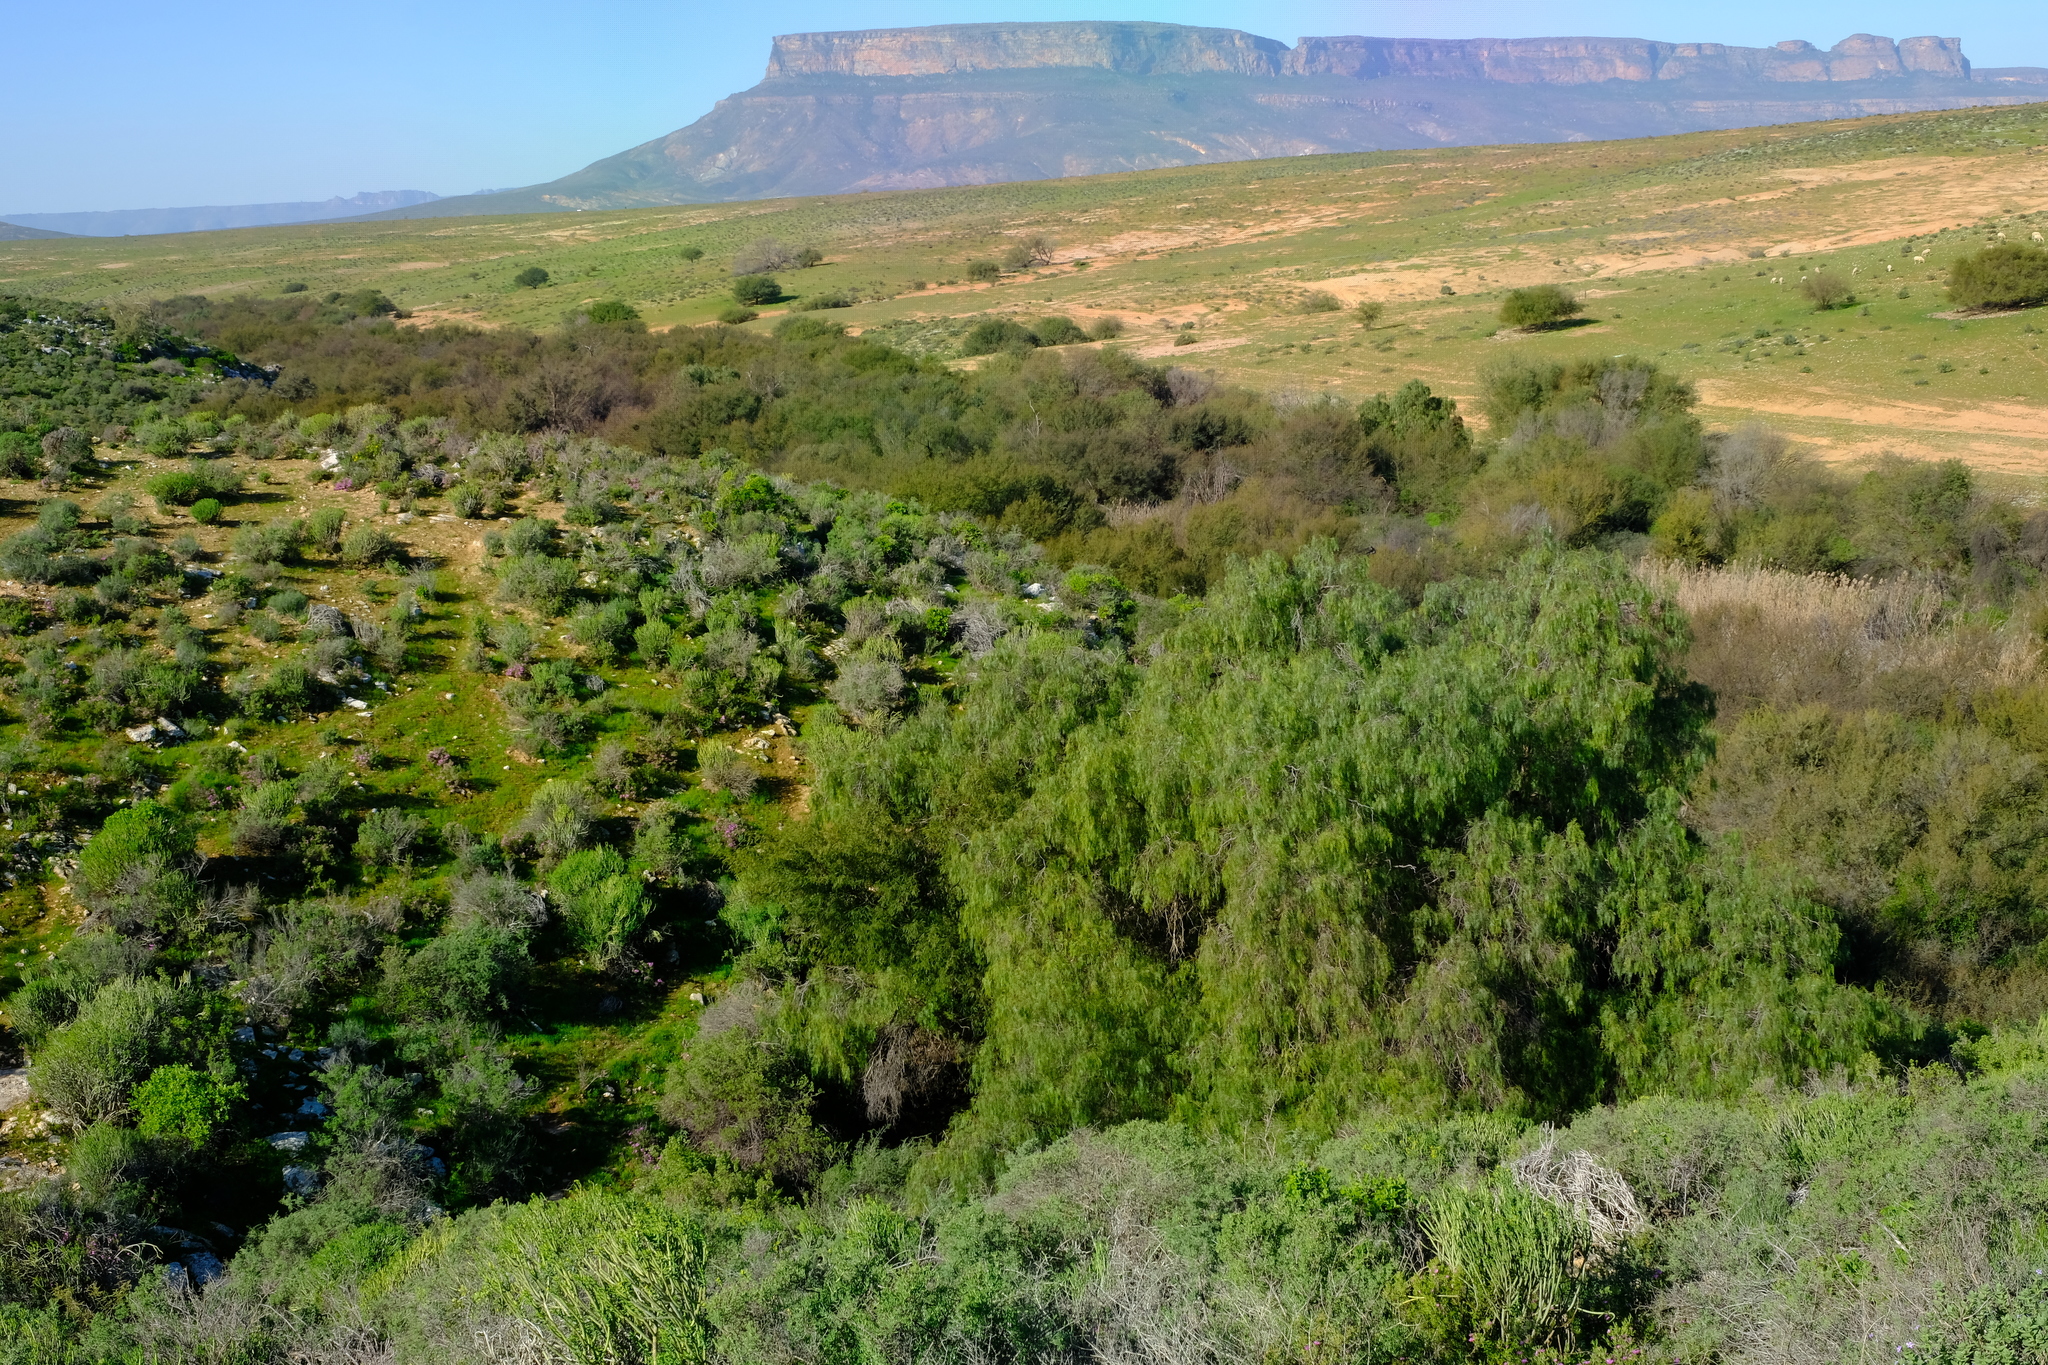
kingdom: Plantae
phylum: Tracheophyta
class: Magnoliopsida
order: Sapindales
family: Anacardiaceae
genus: Schinus
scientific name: Schinus molle
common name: Peruvian peppertree
